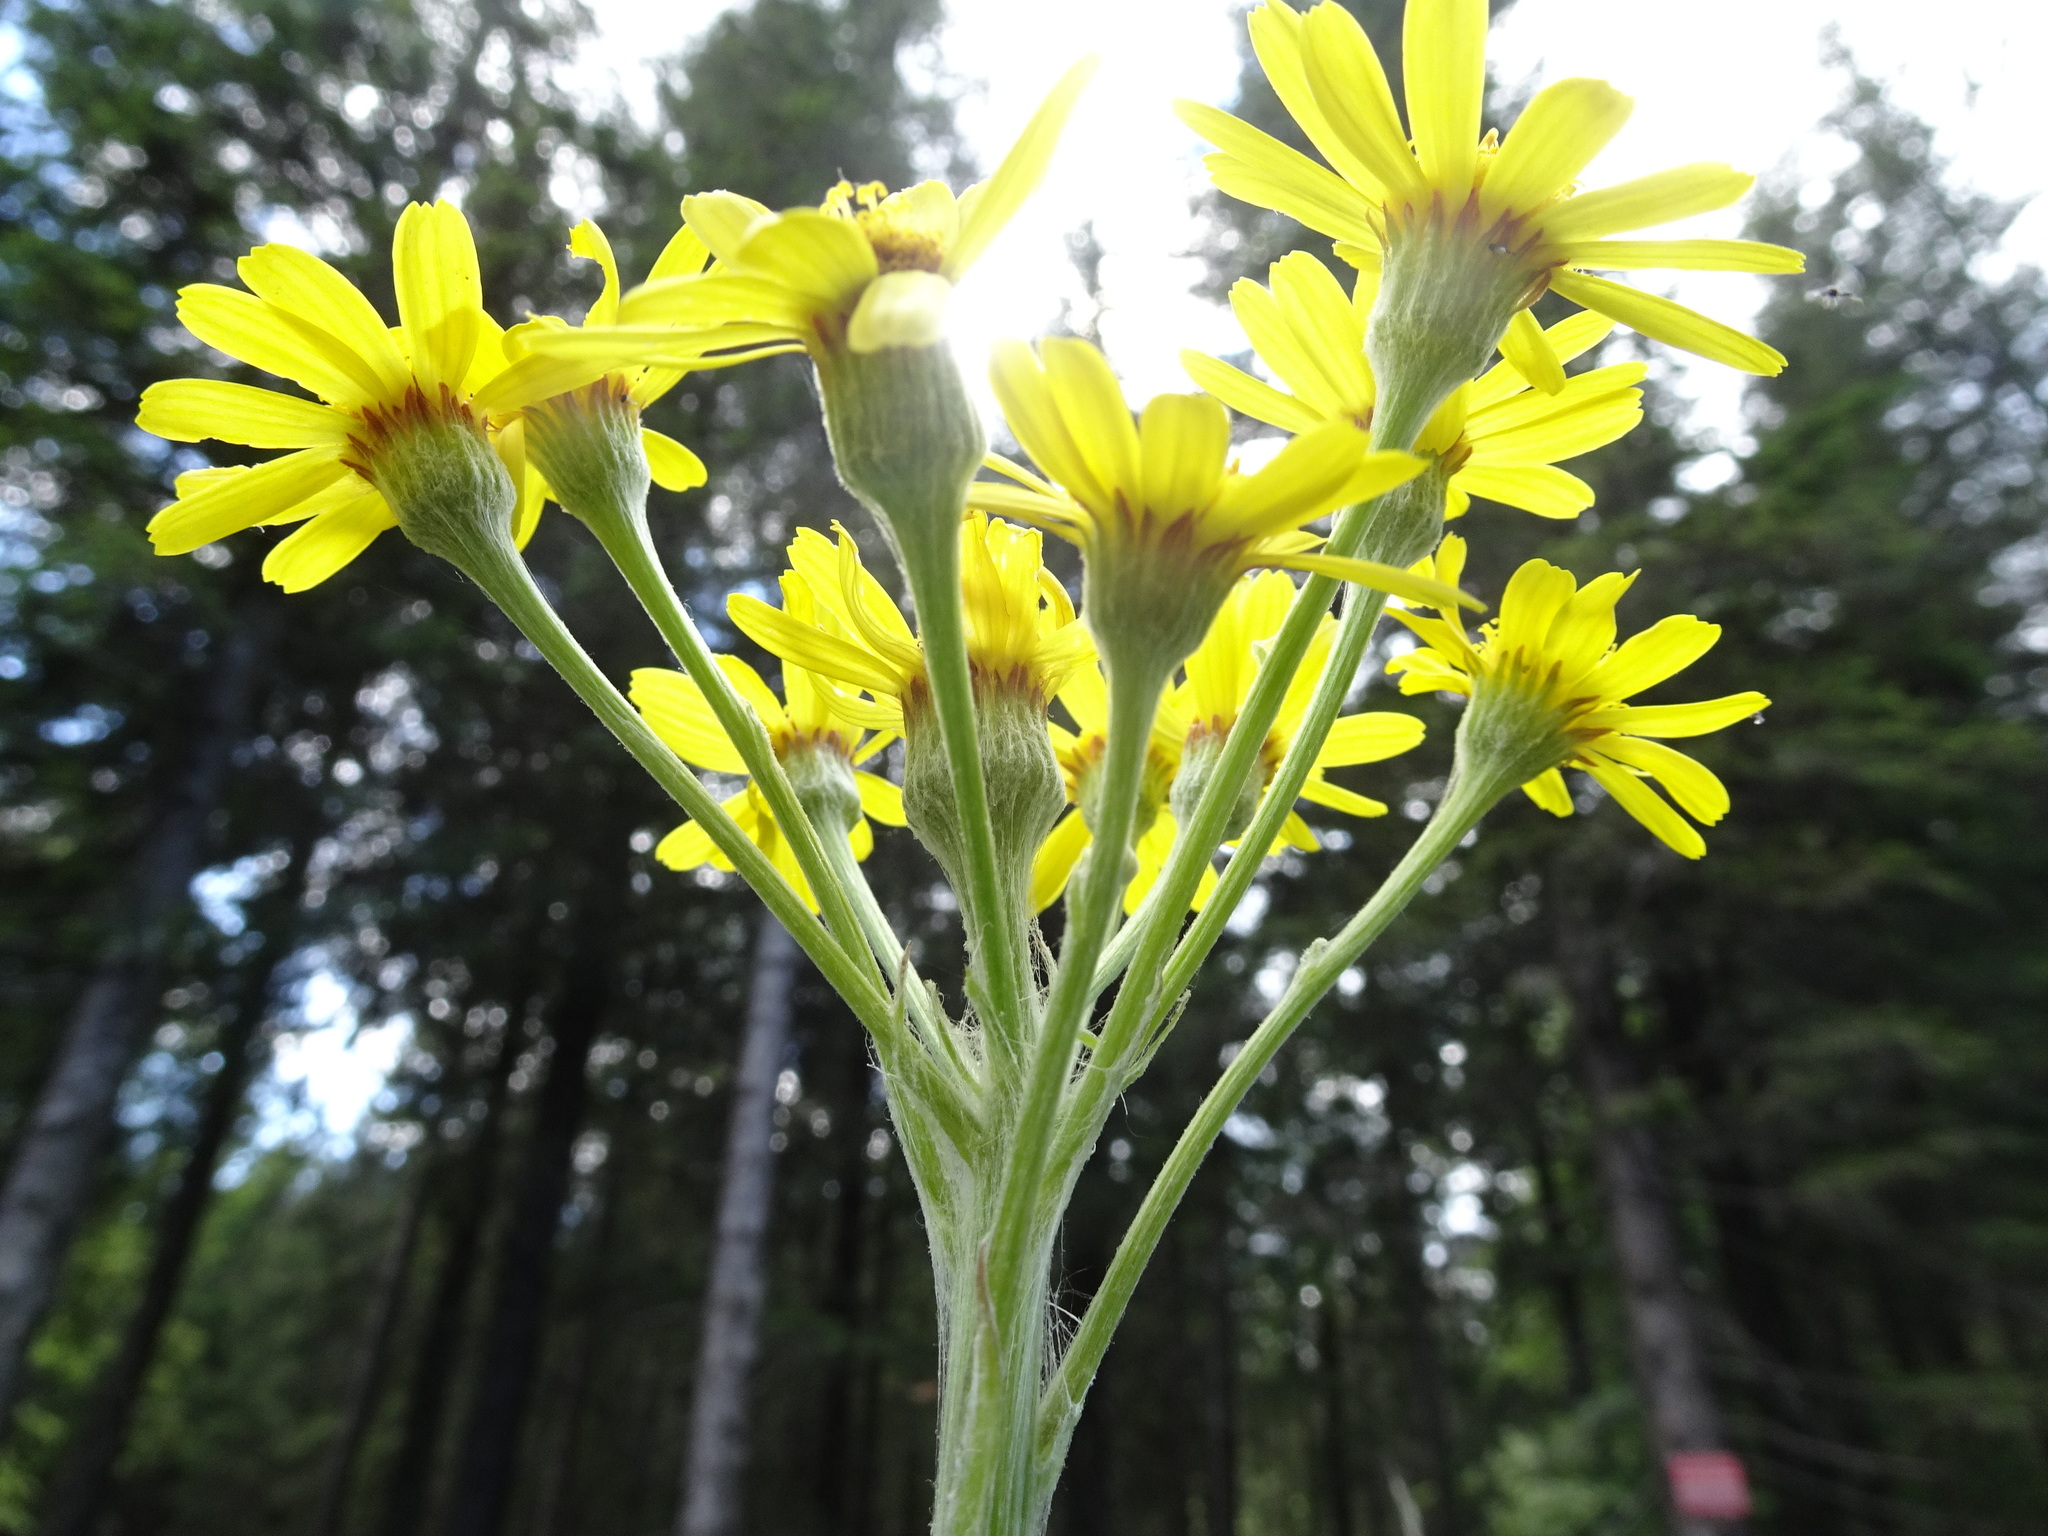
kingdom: Plantae
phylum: Tracheophyta
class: Magnoliopsida
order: Asterales
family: Asteraceae
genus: Tephroseris
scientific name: Tephroseris helenitis
